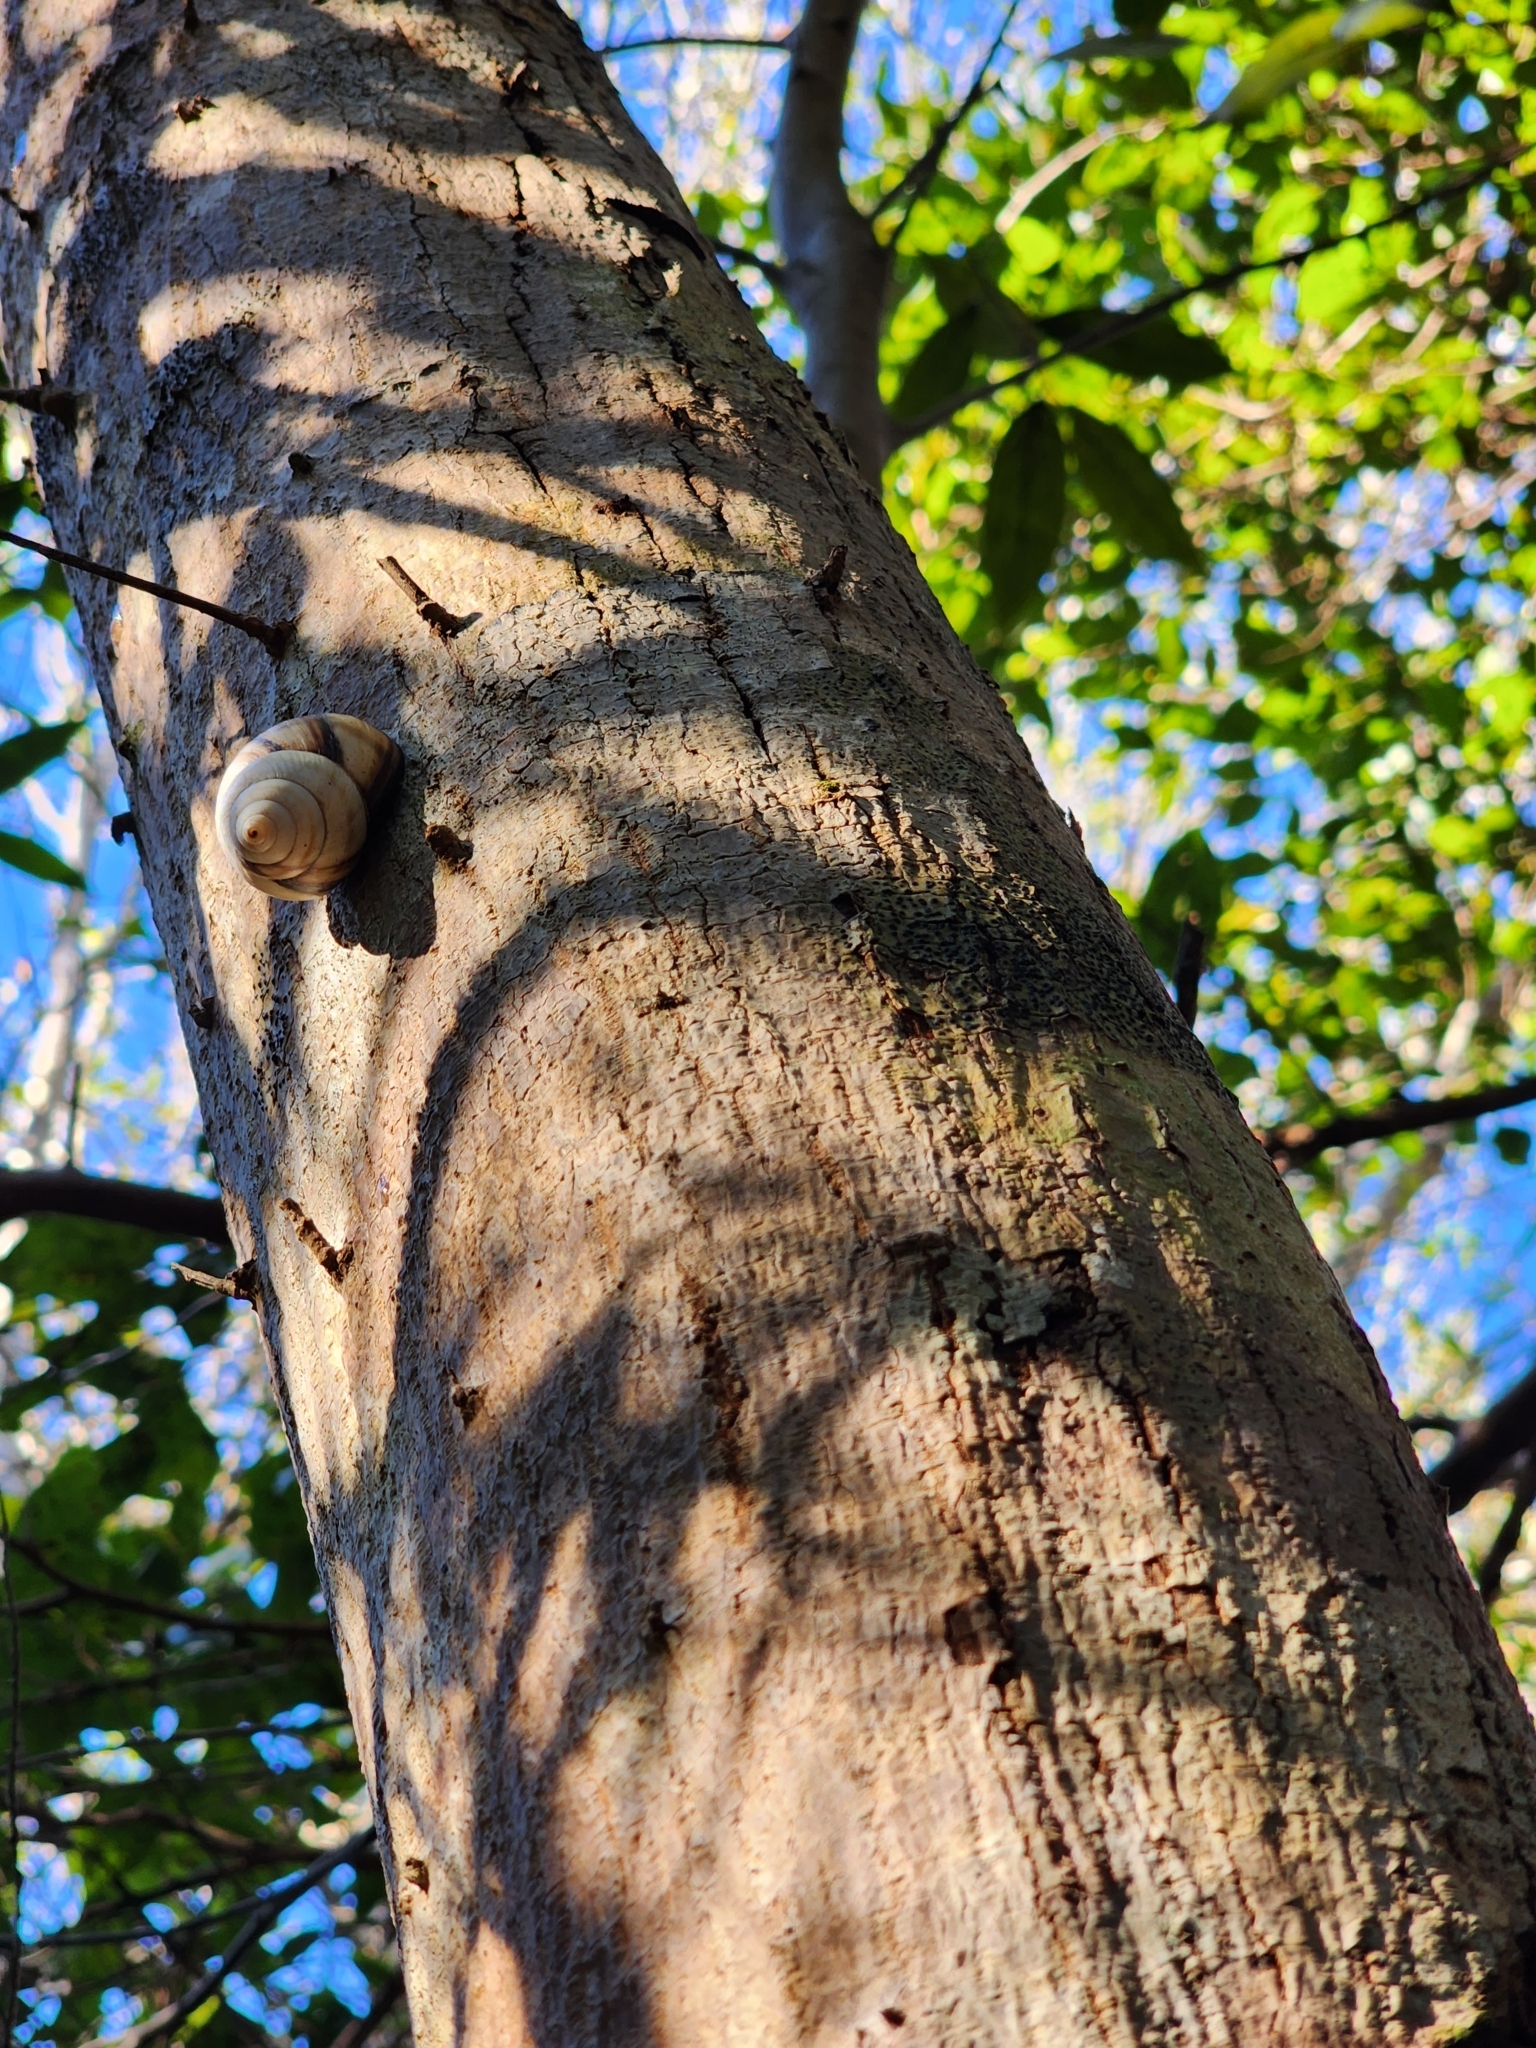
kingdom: Animalia
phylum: Mollusca
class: Gastropoda
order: Stylommatophora
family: Orthalicidae
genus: Orthalicus
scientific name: Orthalicus floridensis
